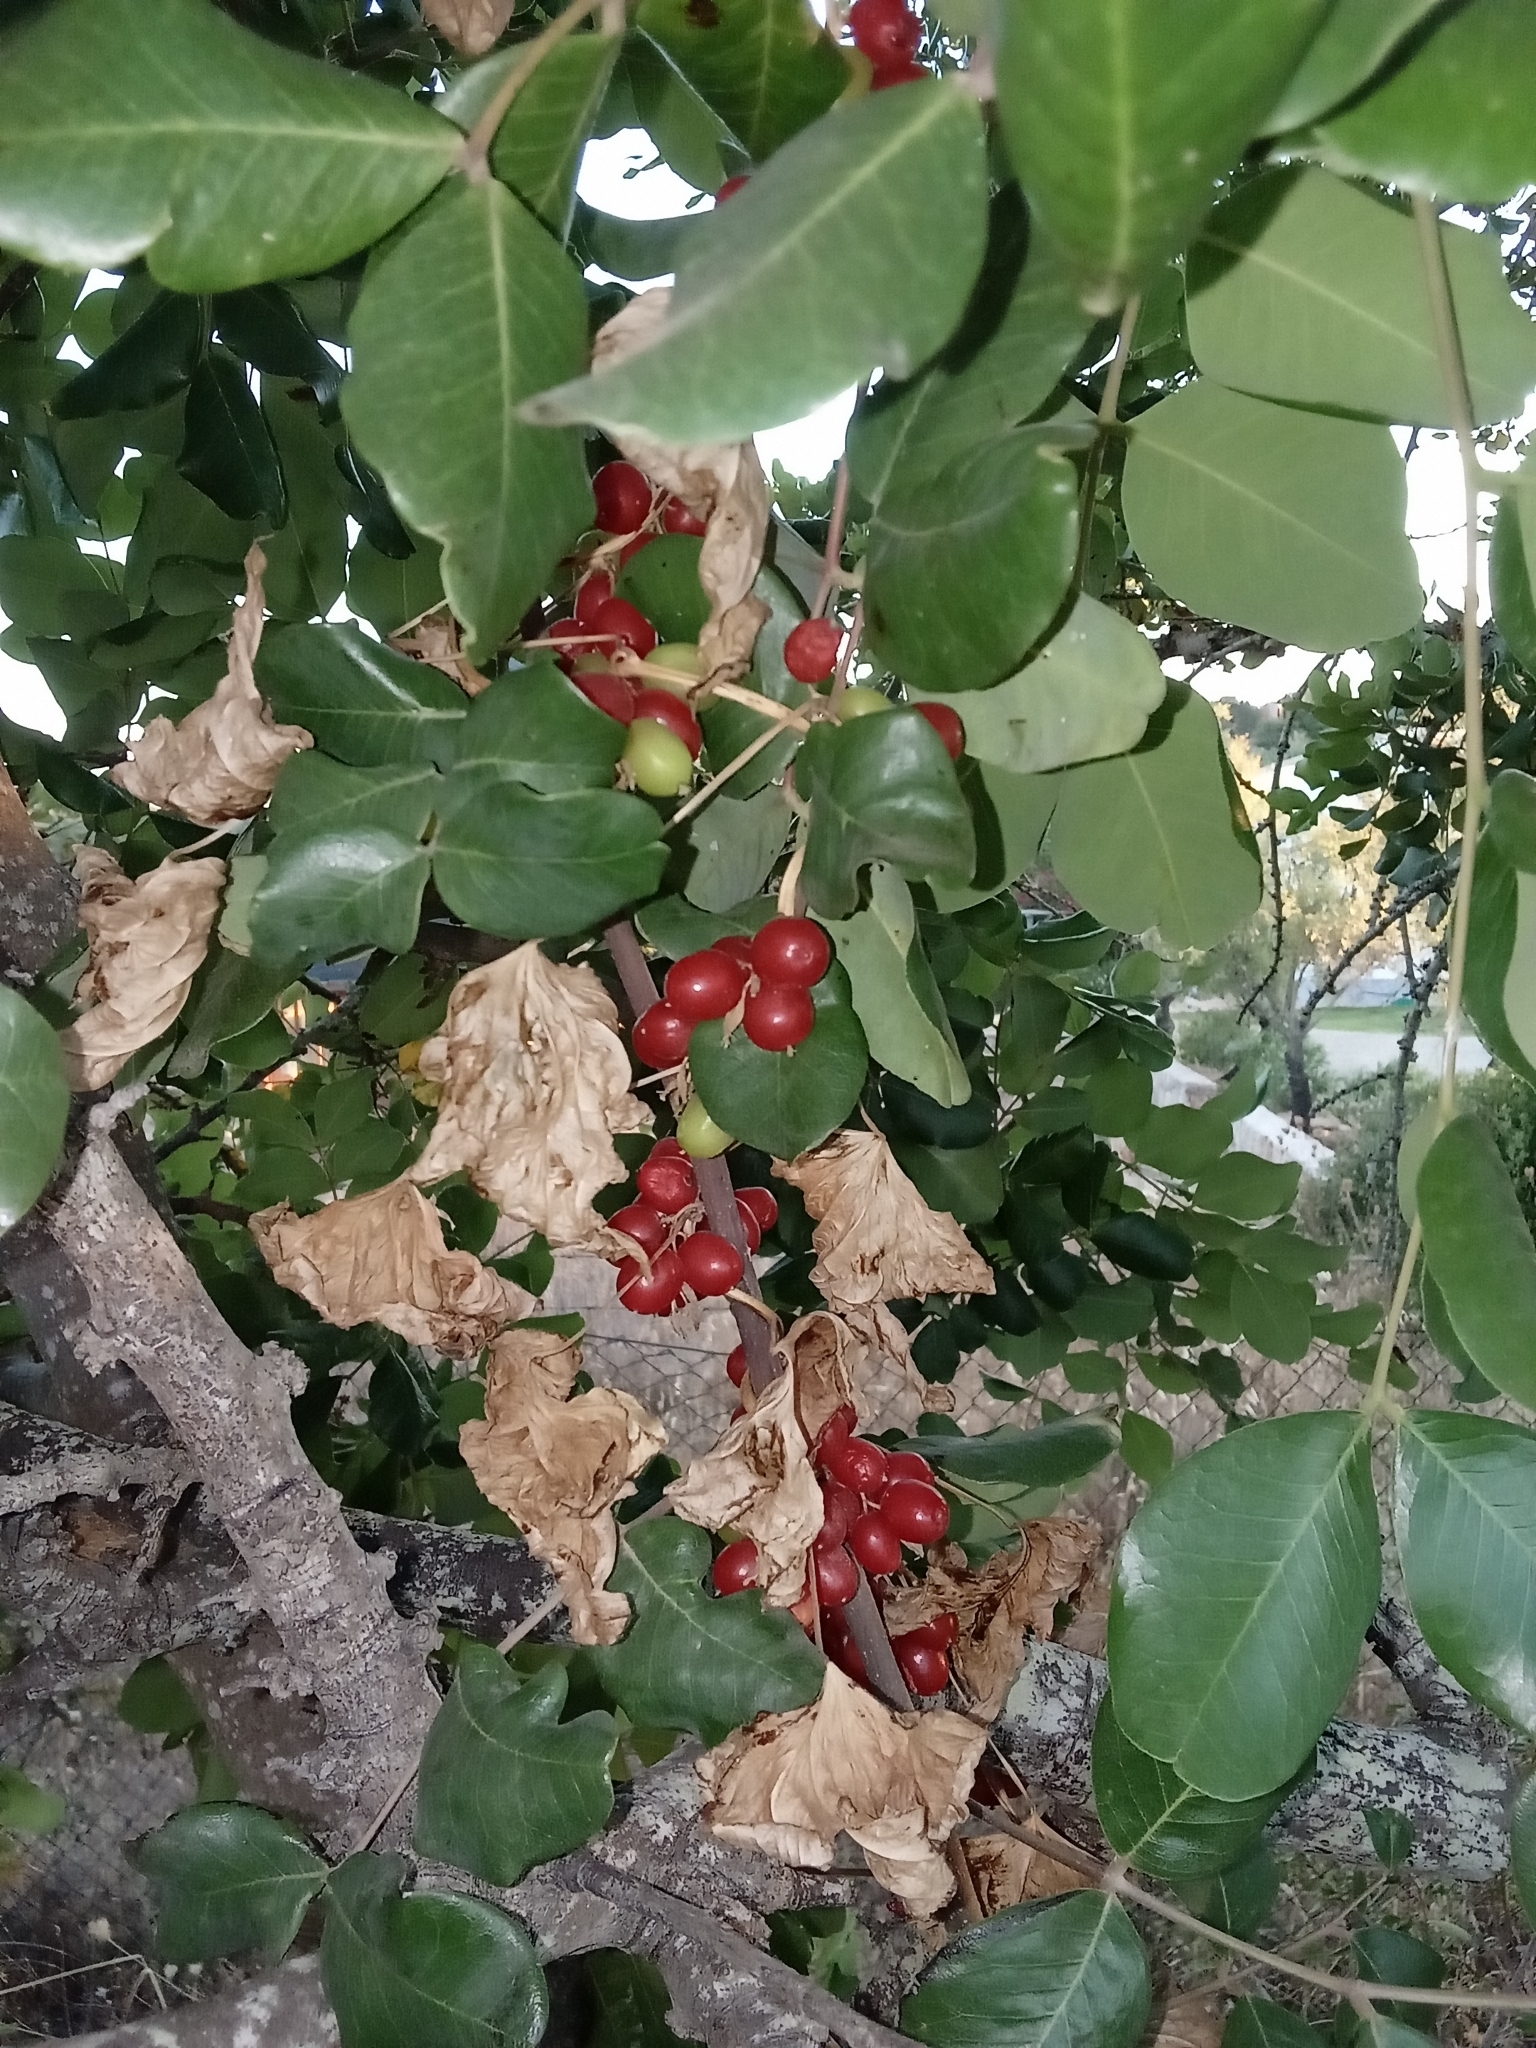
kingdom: Plantae
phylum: Tracheophyta
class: Liliopsida
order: Dioscoreales
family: Dioscoreaceae
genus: Dioscorea
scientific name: Dioscorea communis
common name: Black-bindweed
